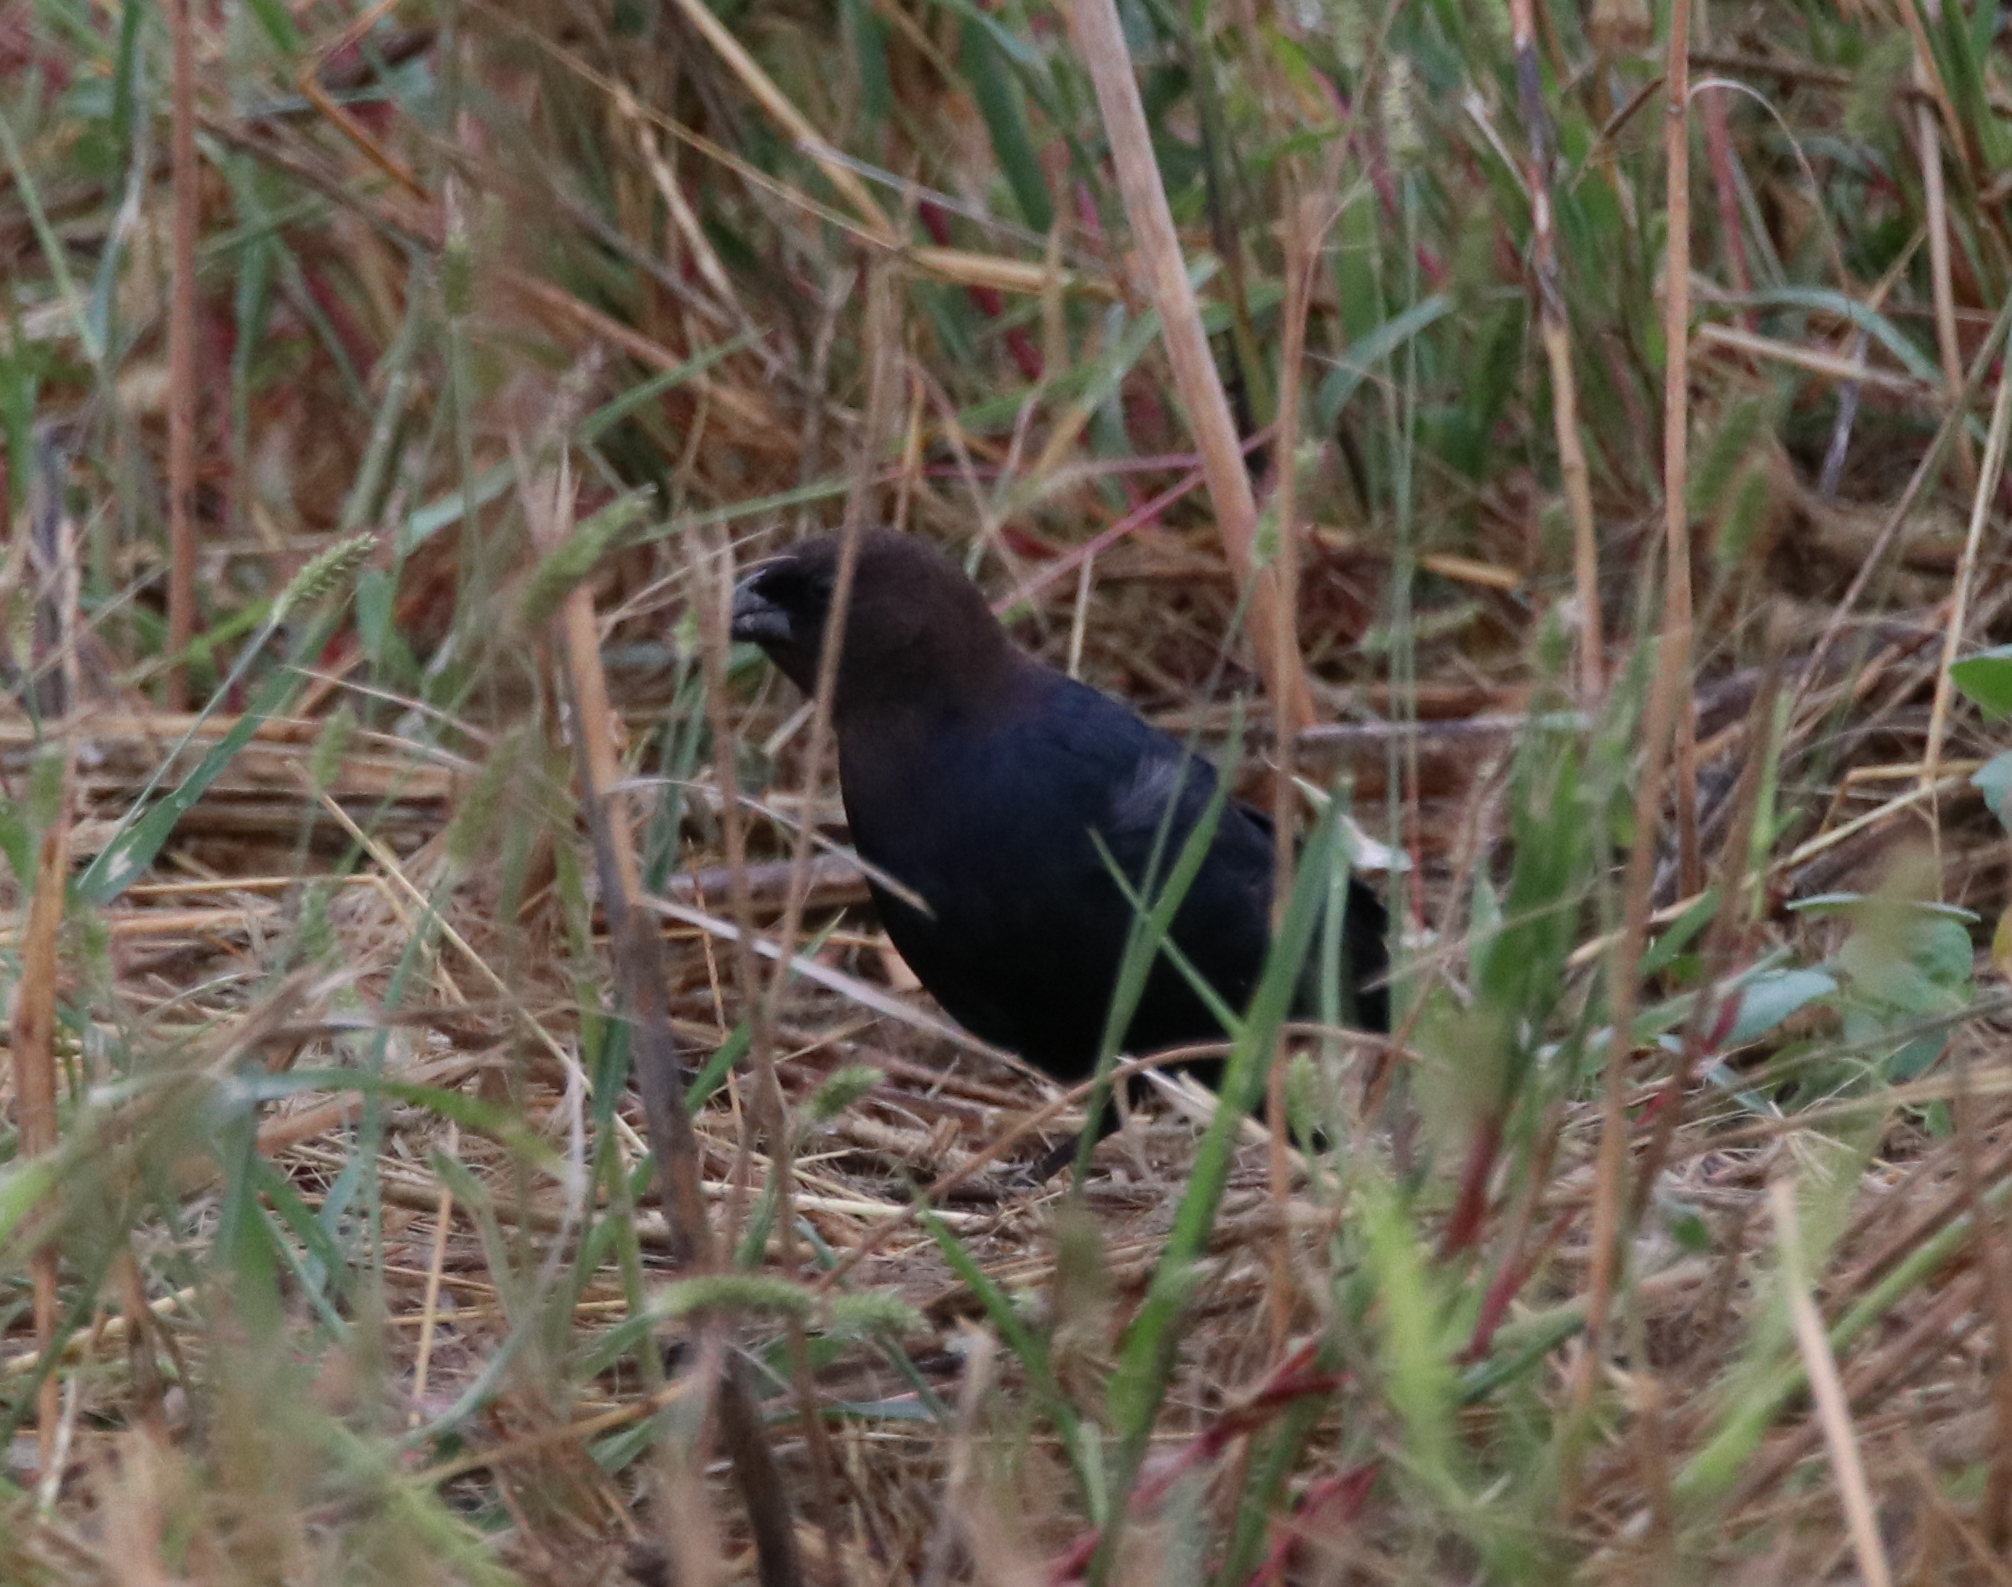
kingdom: Animalia
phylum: Chordata
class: Aves
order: Passeriformes
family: Icteridae
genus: Molothrus
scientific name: Molothrus ater
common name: Brown-headed cowbird
